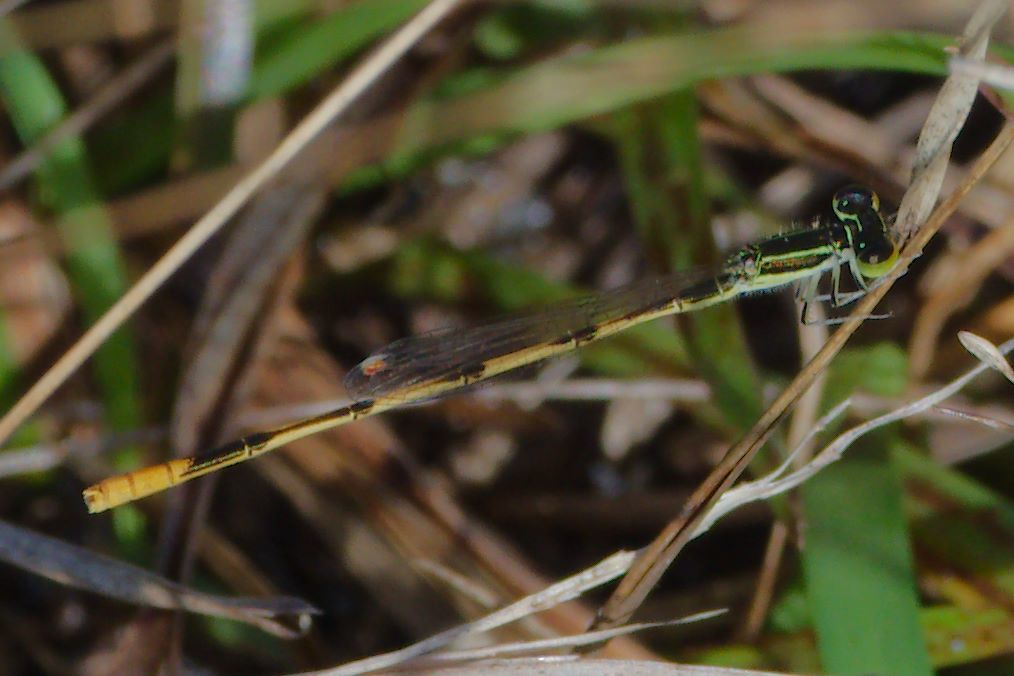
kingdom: Animalia
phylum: Arthropoda
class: Insecta
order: Odonata
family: Coenagrionidae
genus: Ischnura
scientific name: Ischnura hastata
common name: Citrine forktail
